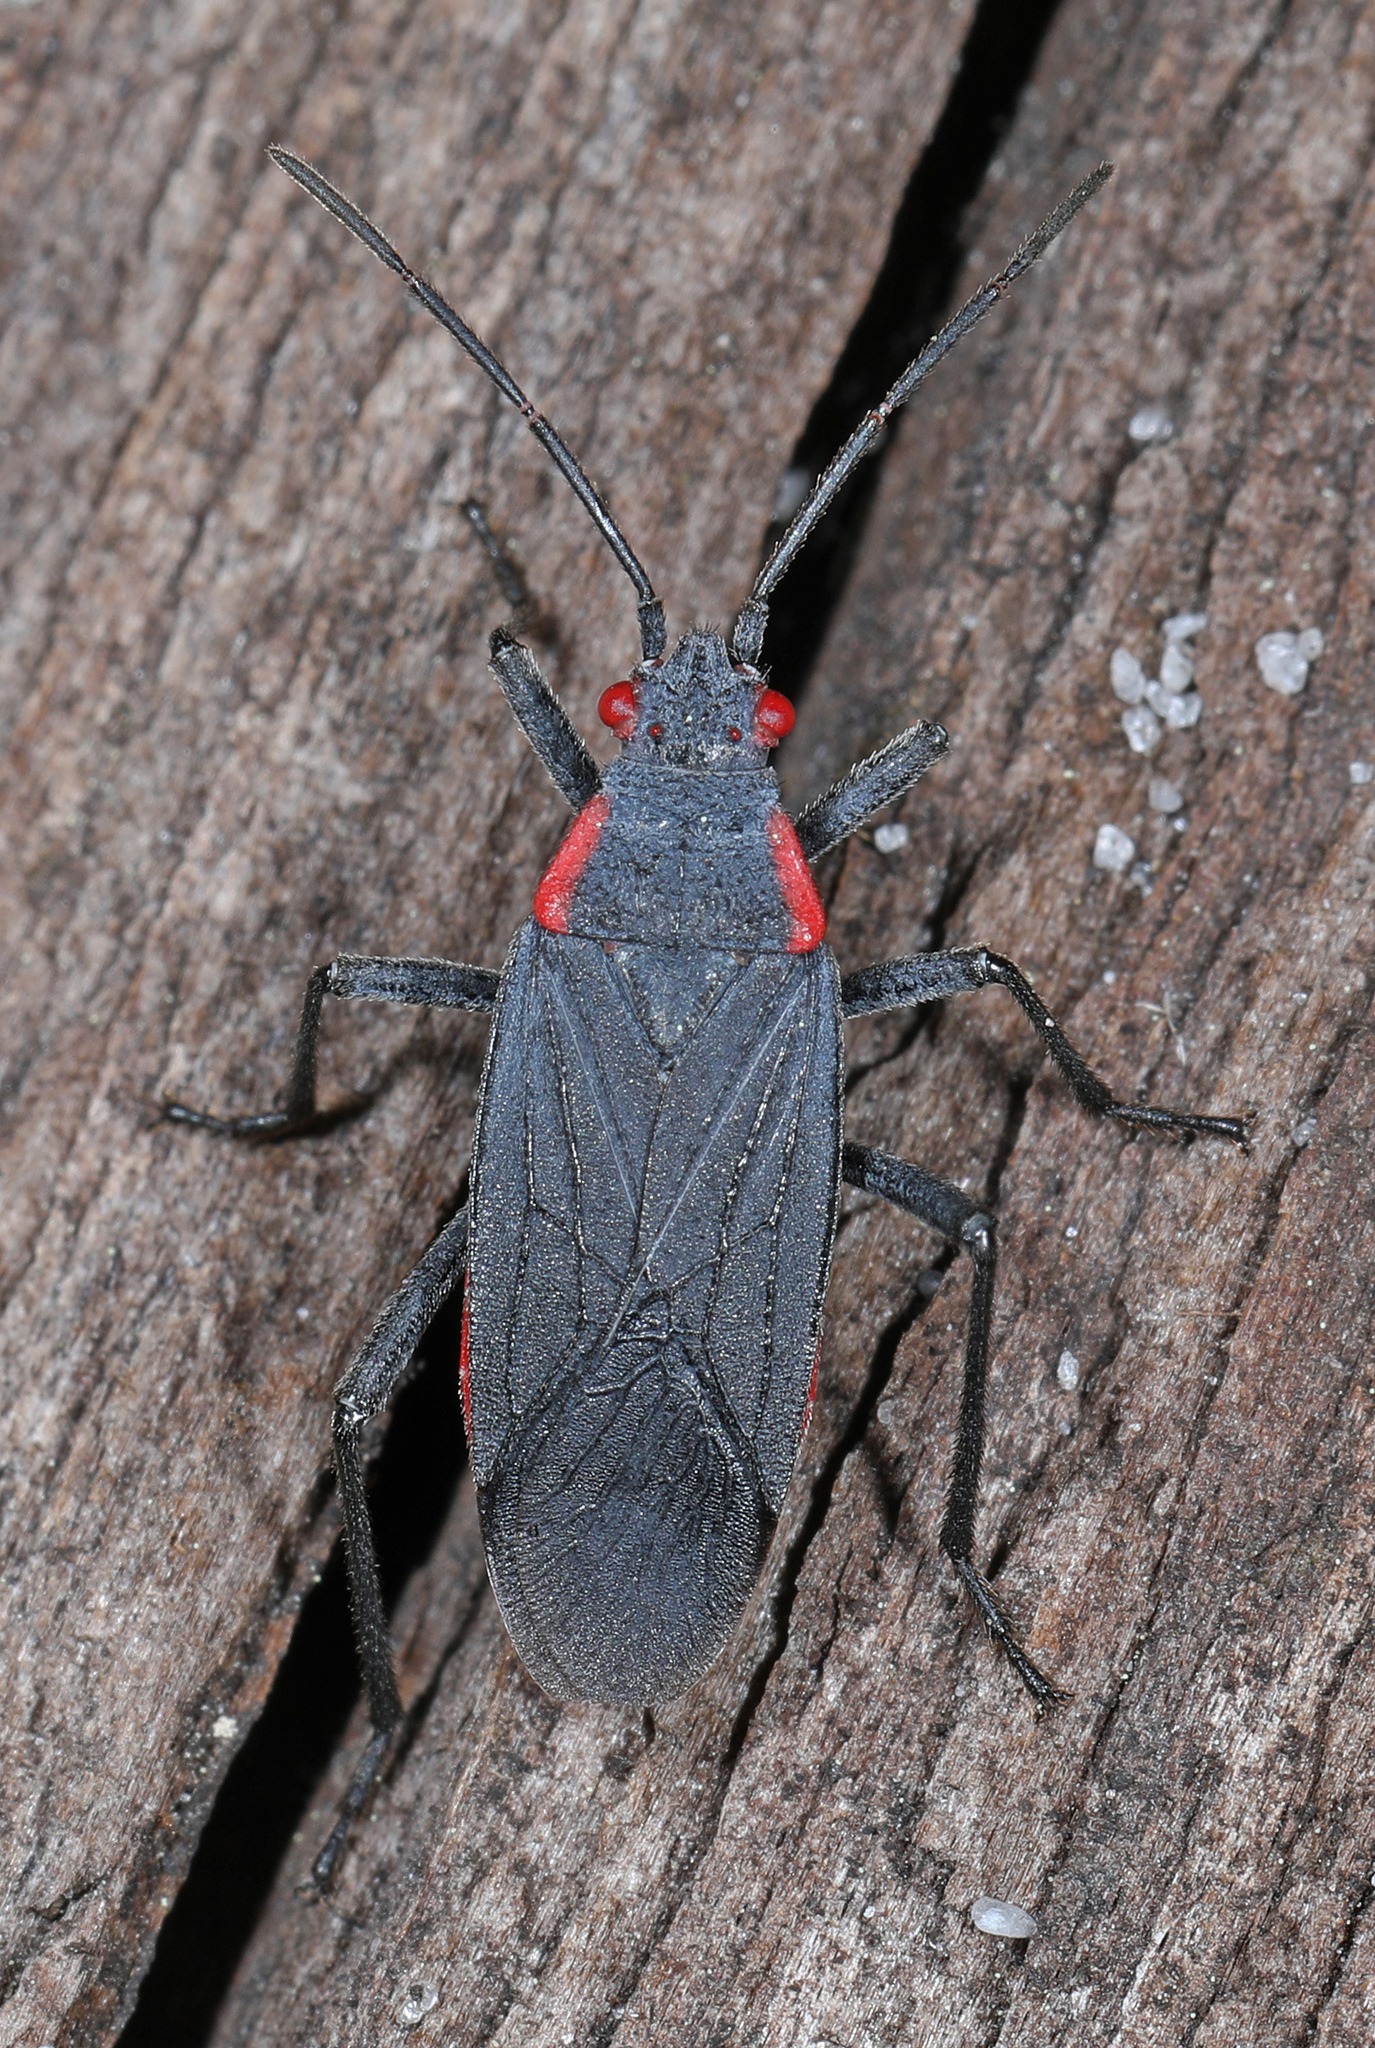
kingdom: Animalia
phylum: Arthropoda
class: Insecta
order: Hemiptera
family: Rhopalidae
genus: Jadera
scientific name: Jadera haematoloma
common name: Red-shouldered bug
